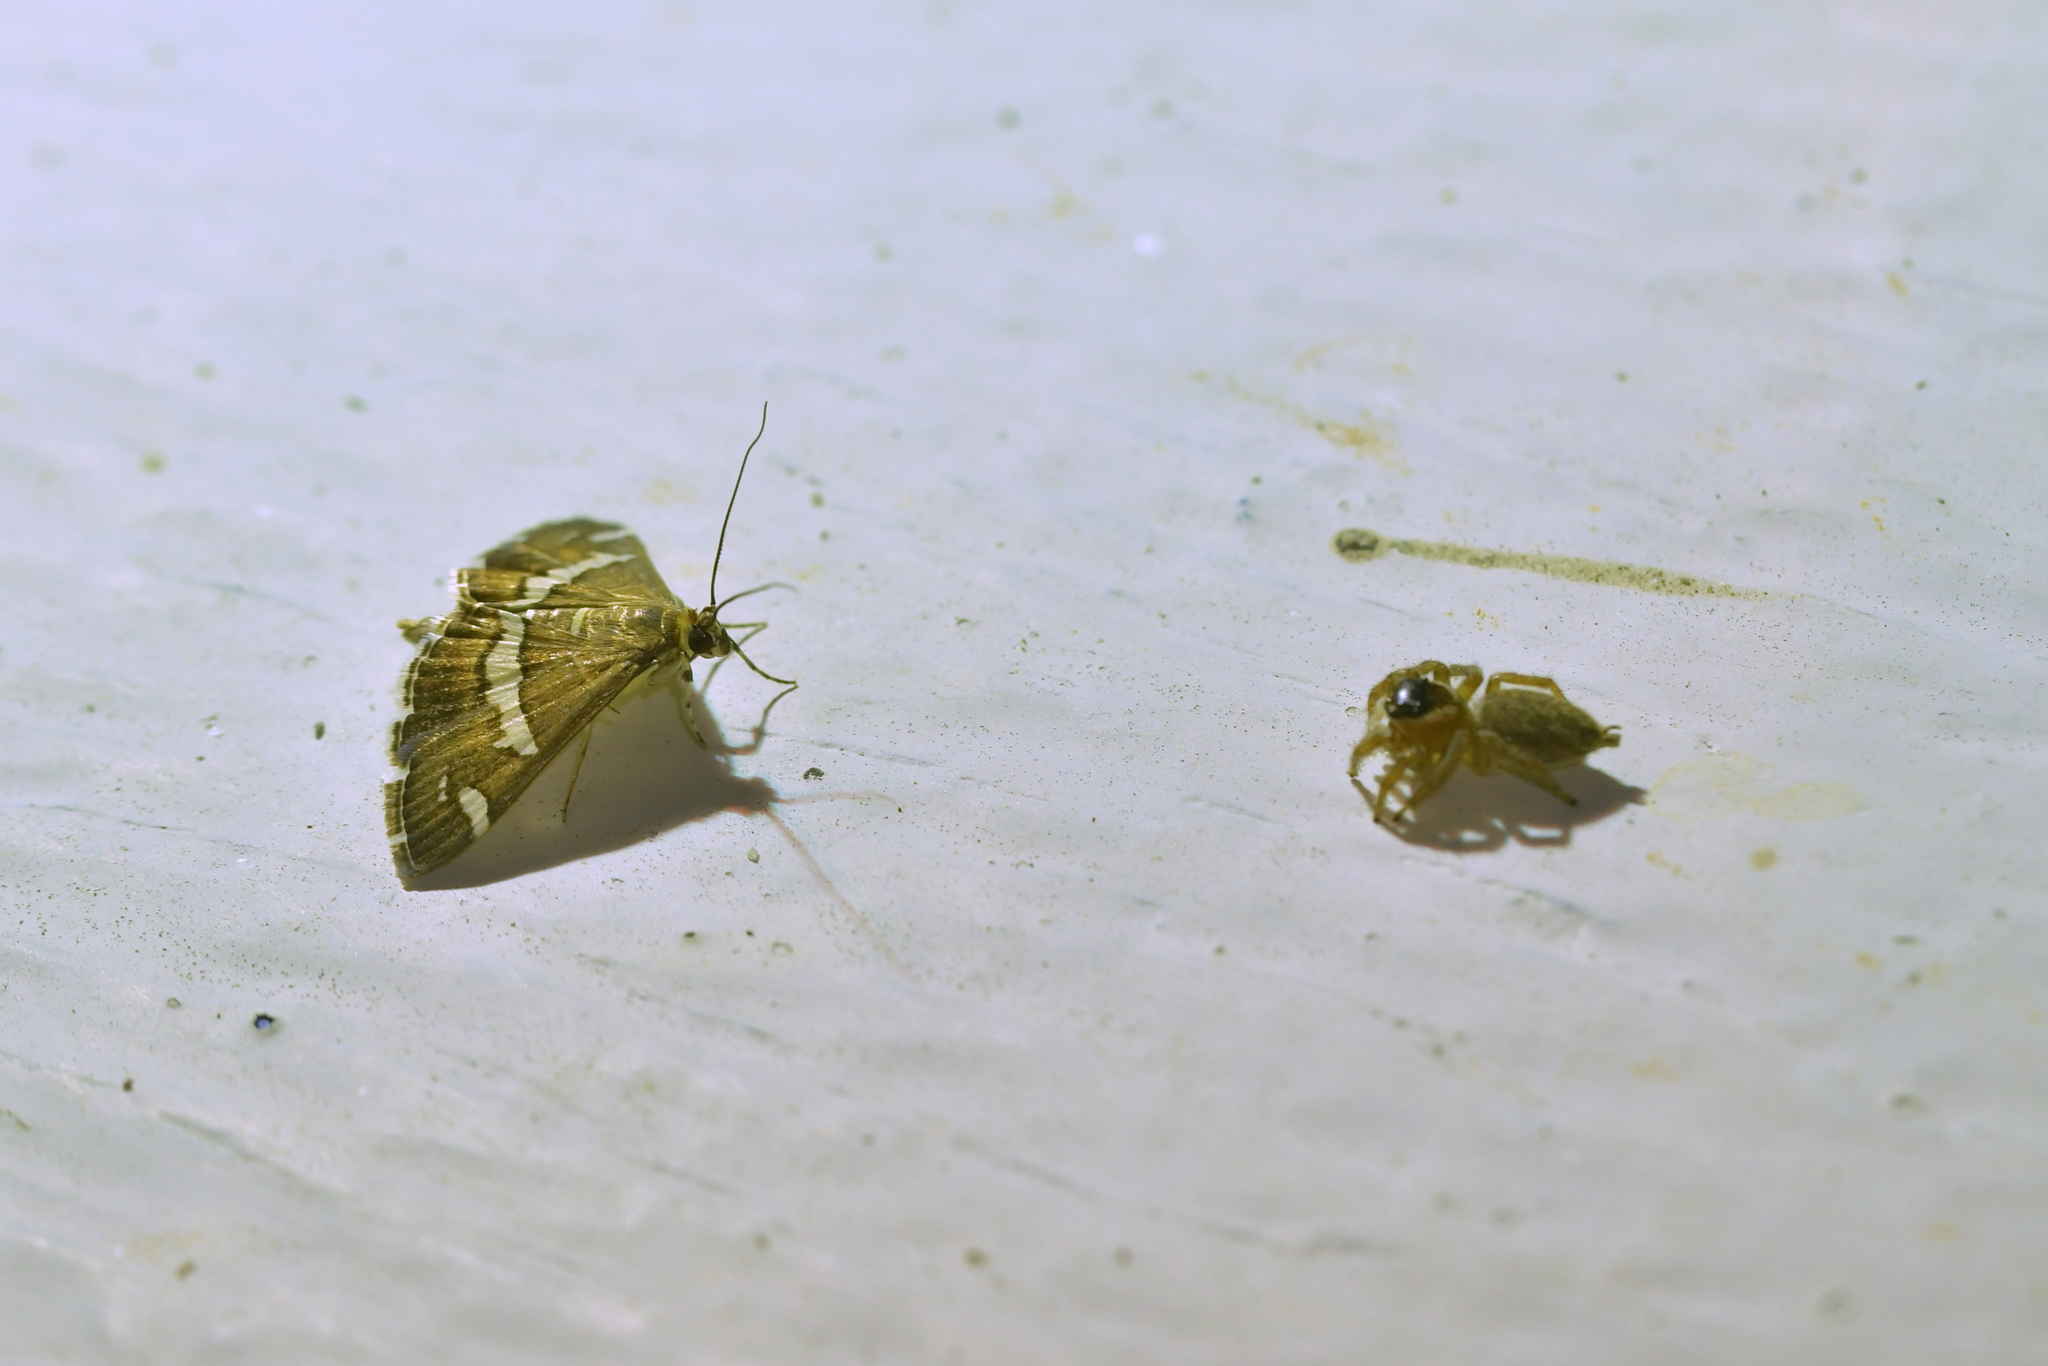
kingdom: Animalia
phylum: Arthropoda
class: Arachnida
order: Araneae
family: Salticidae
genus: Maratus
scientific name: Maratus griseus
